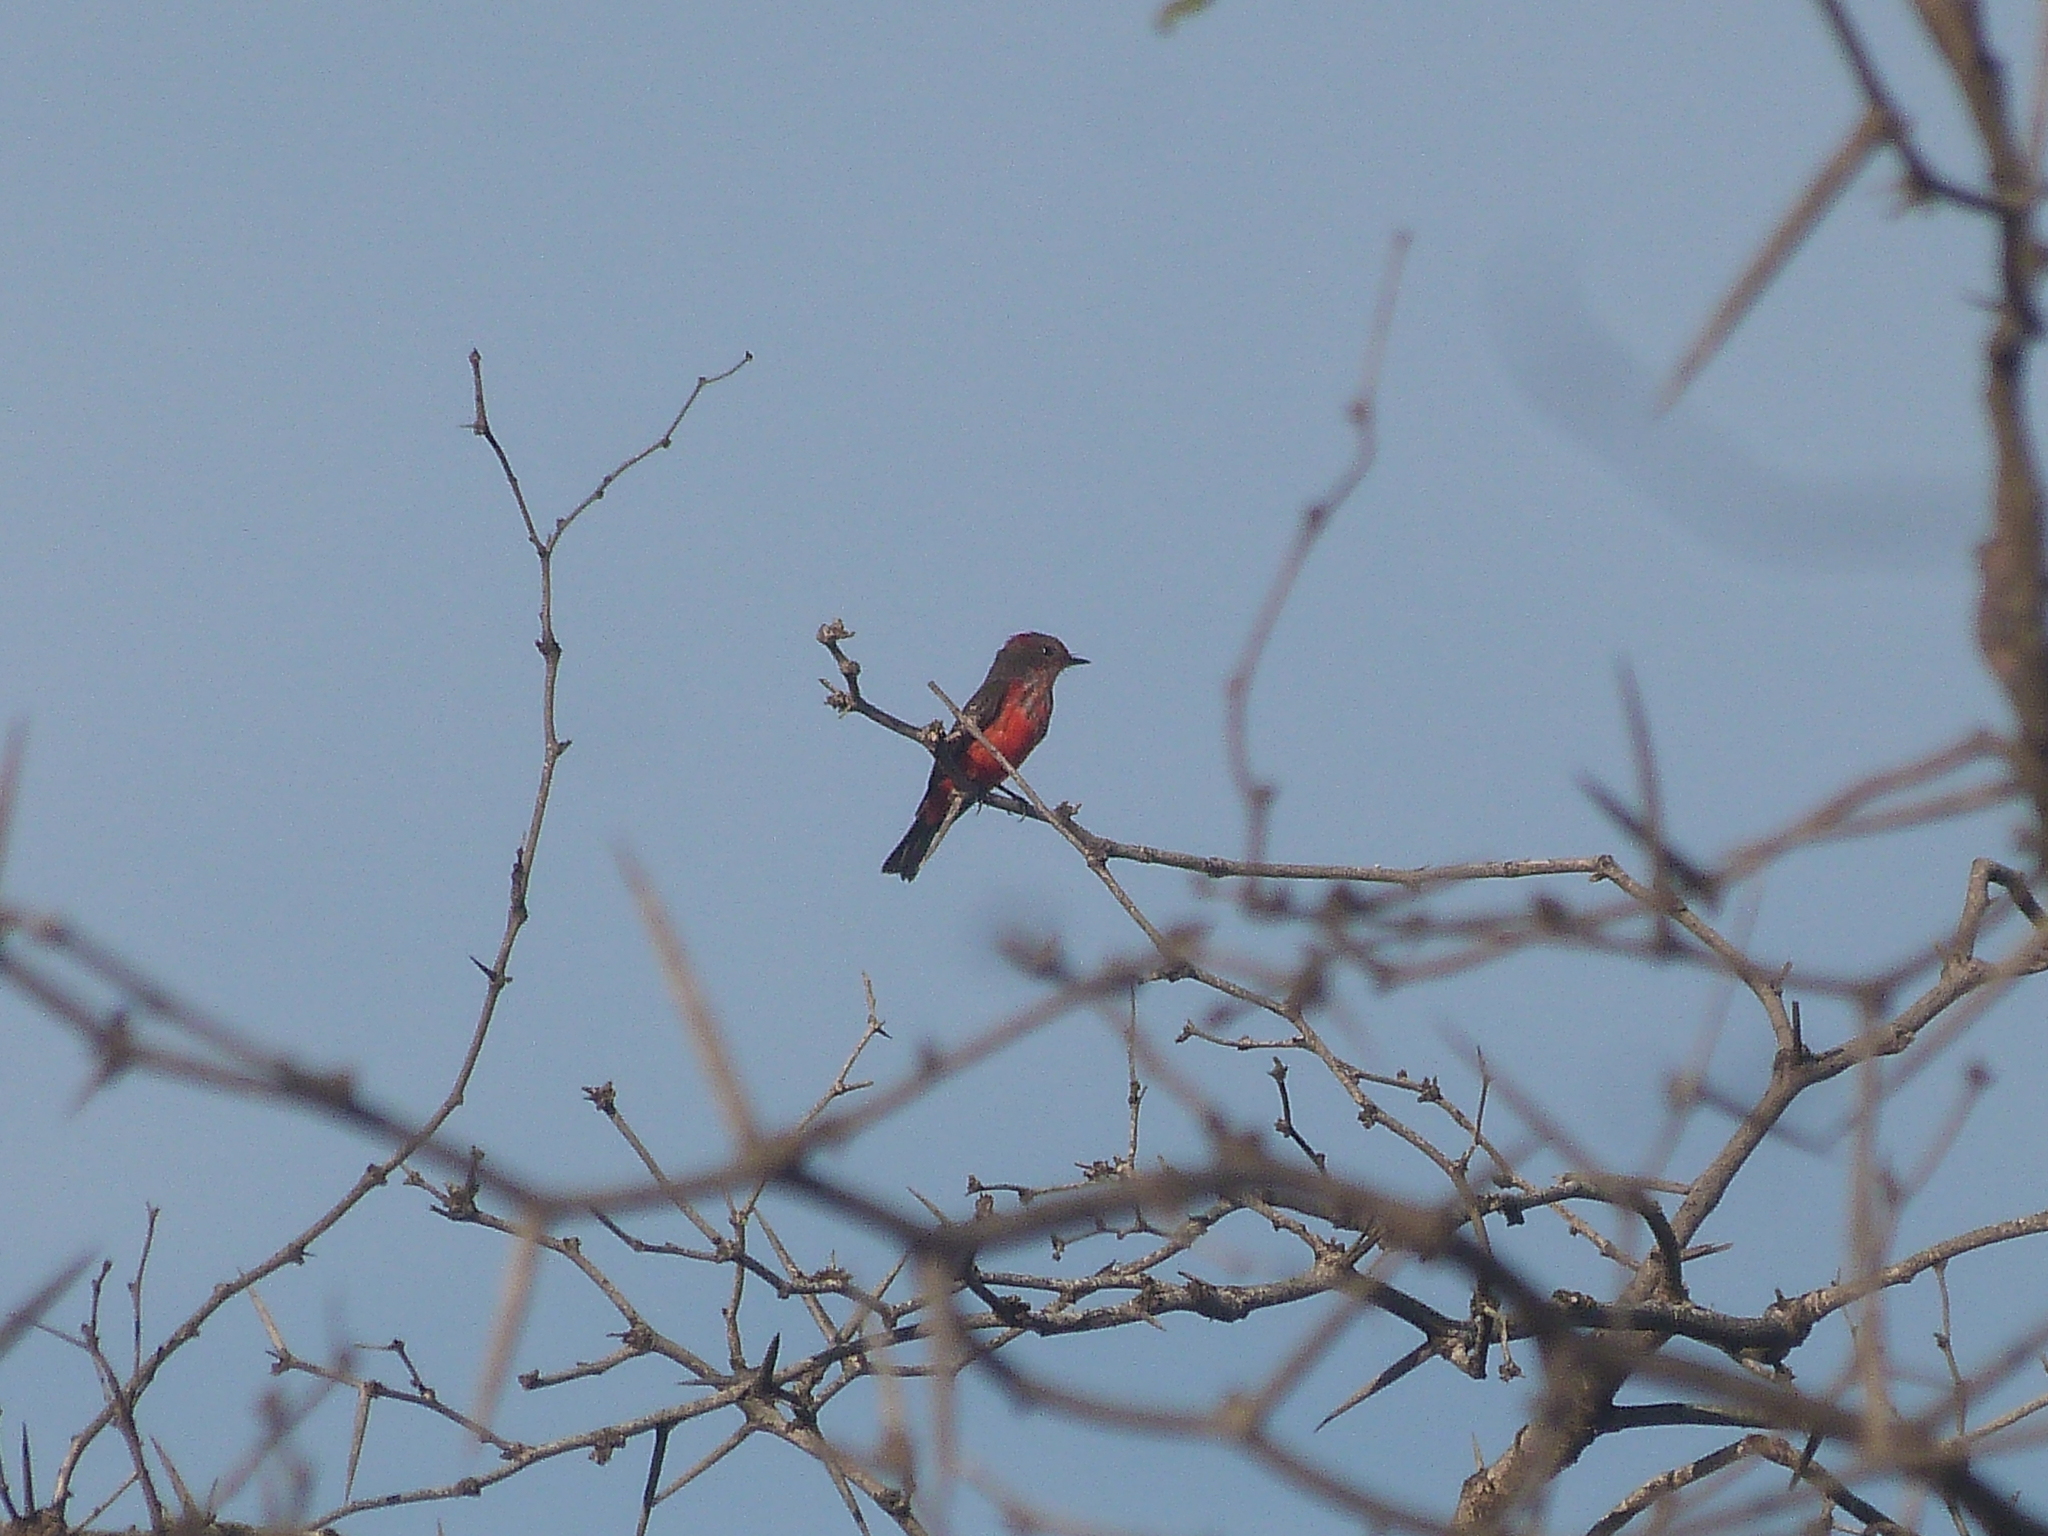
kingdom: Animalia
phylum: Chordata
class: Aves
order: Passeriformes
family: Tyrannidae
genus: Pyrocephalus
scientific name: Pyrocephalus rubinus
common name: Vermilion flycatcher
